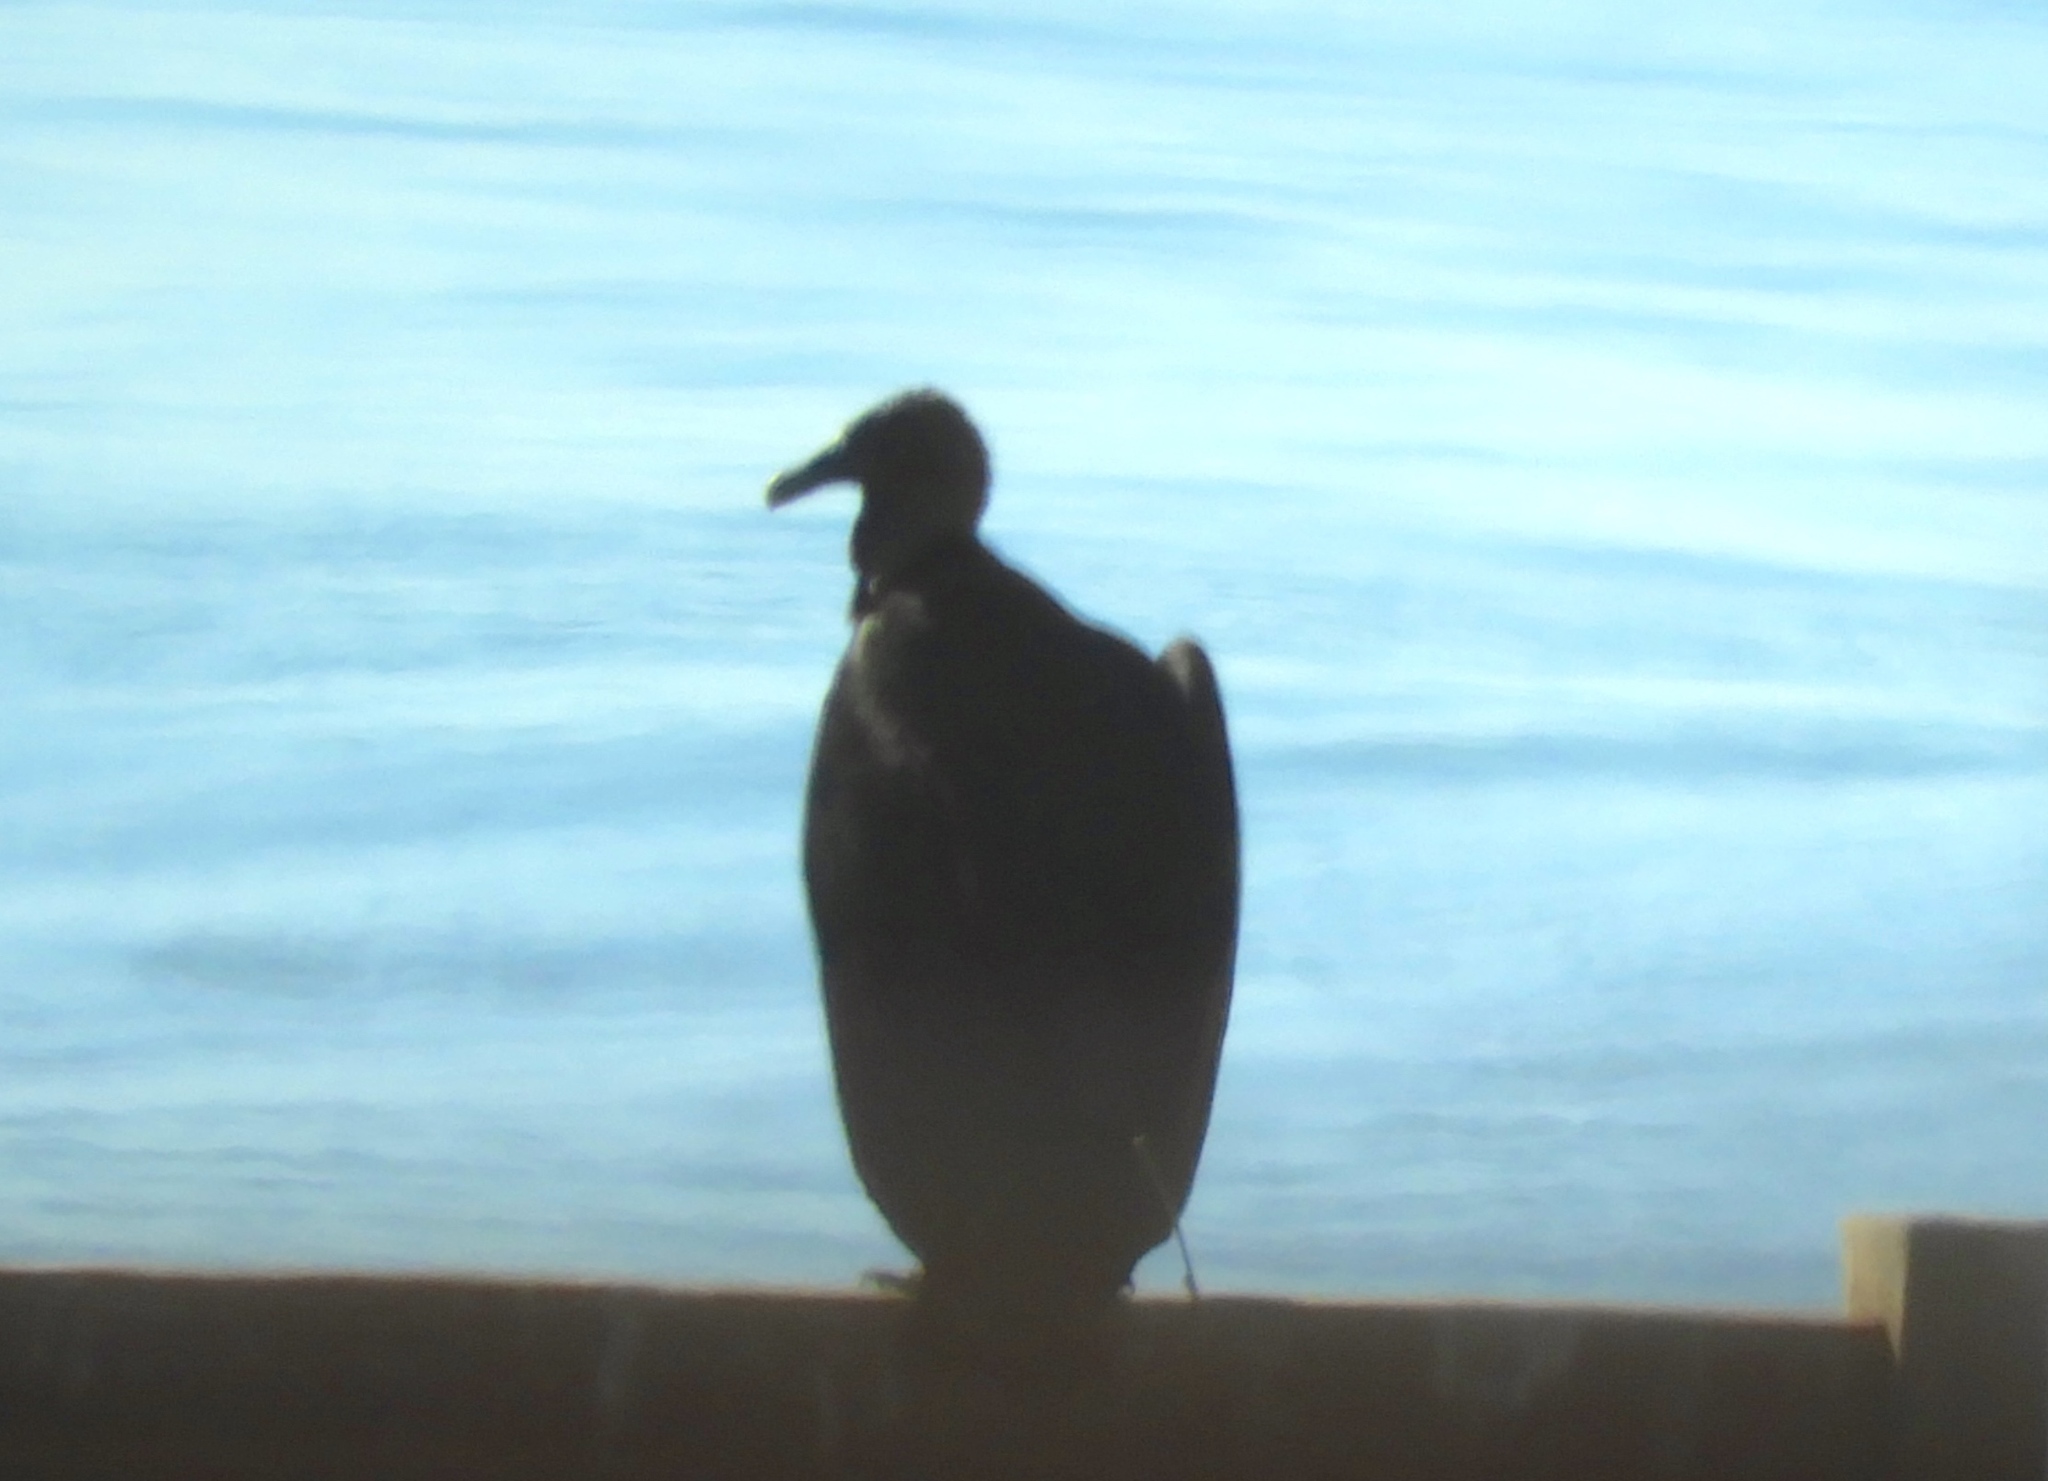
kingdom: Animalia
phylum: Chordata
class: Aves
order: Accipitriformes
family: Cathartidae
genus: Coragyps
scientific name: Coragyps atratus
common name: Black vulture
